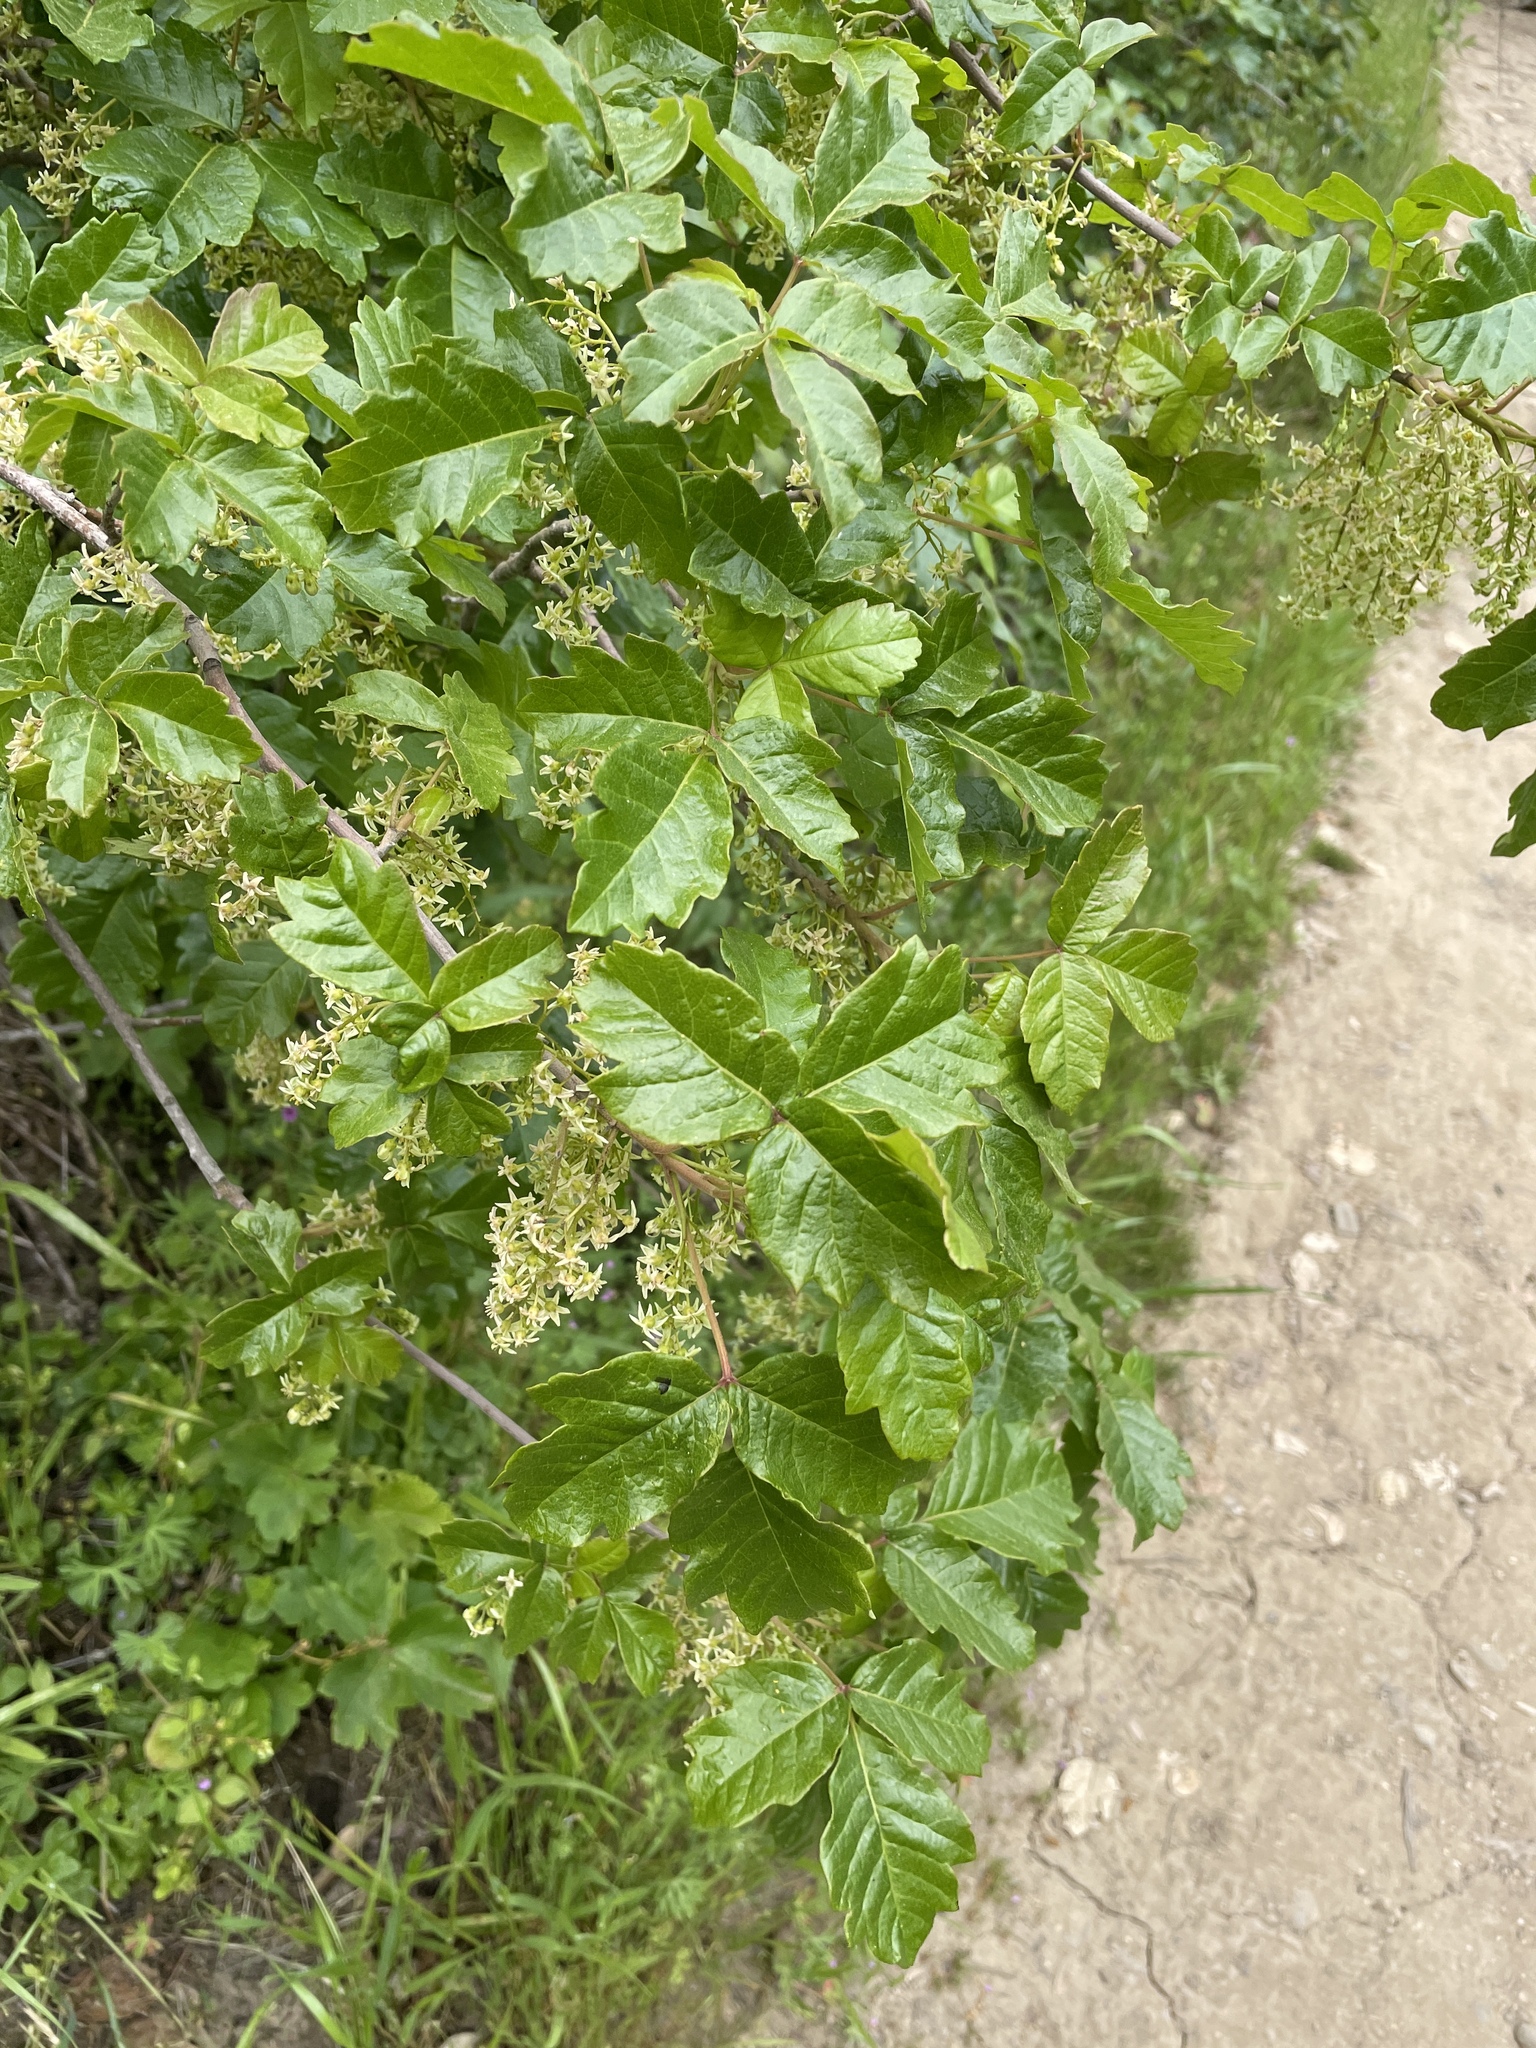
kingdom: Plantae
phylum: Tracheophyta
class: Magnoliopsida
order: Sapindales
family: Anacardiaceae
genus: Toxicodendron
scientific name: Toxicodendron diversilobum
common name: Pacific poison-oak
